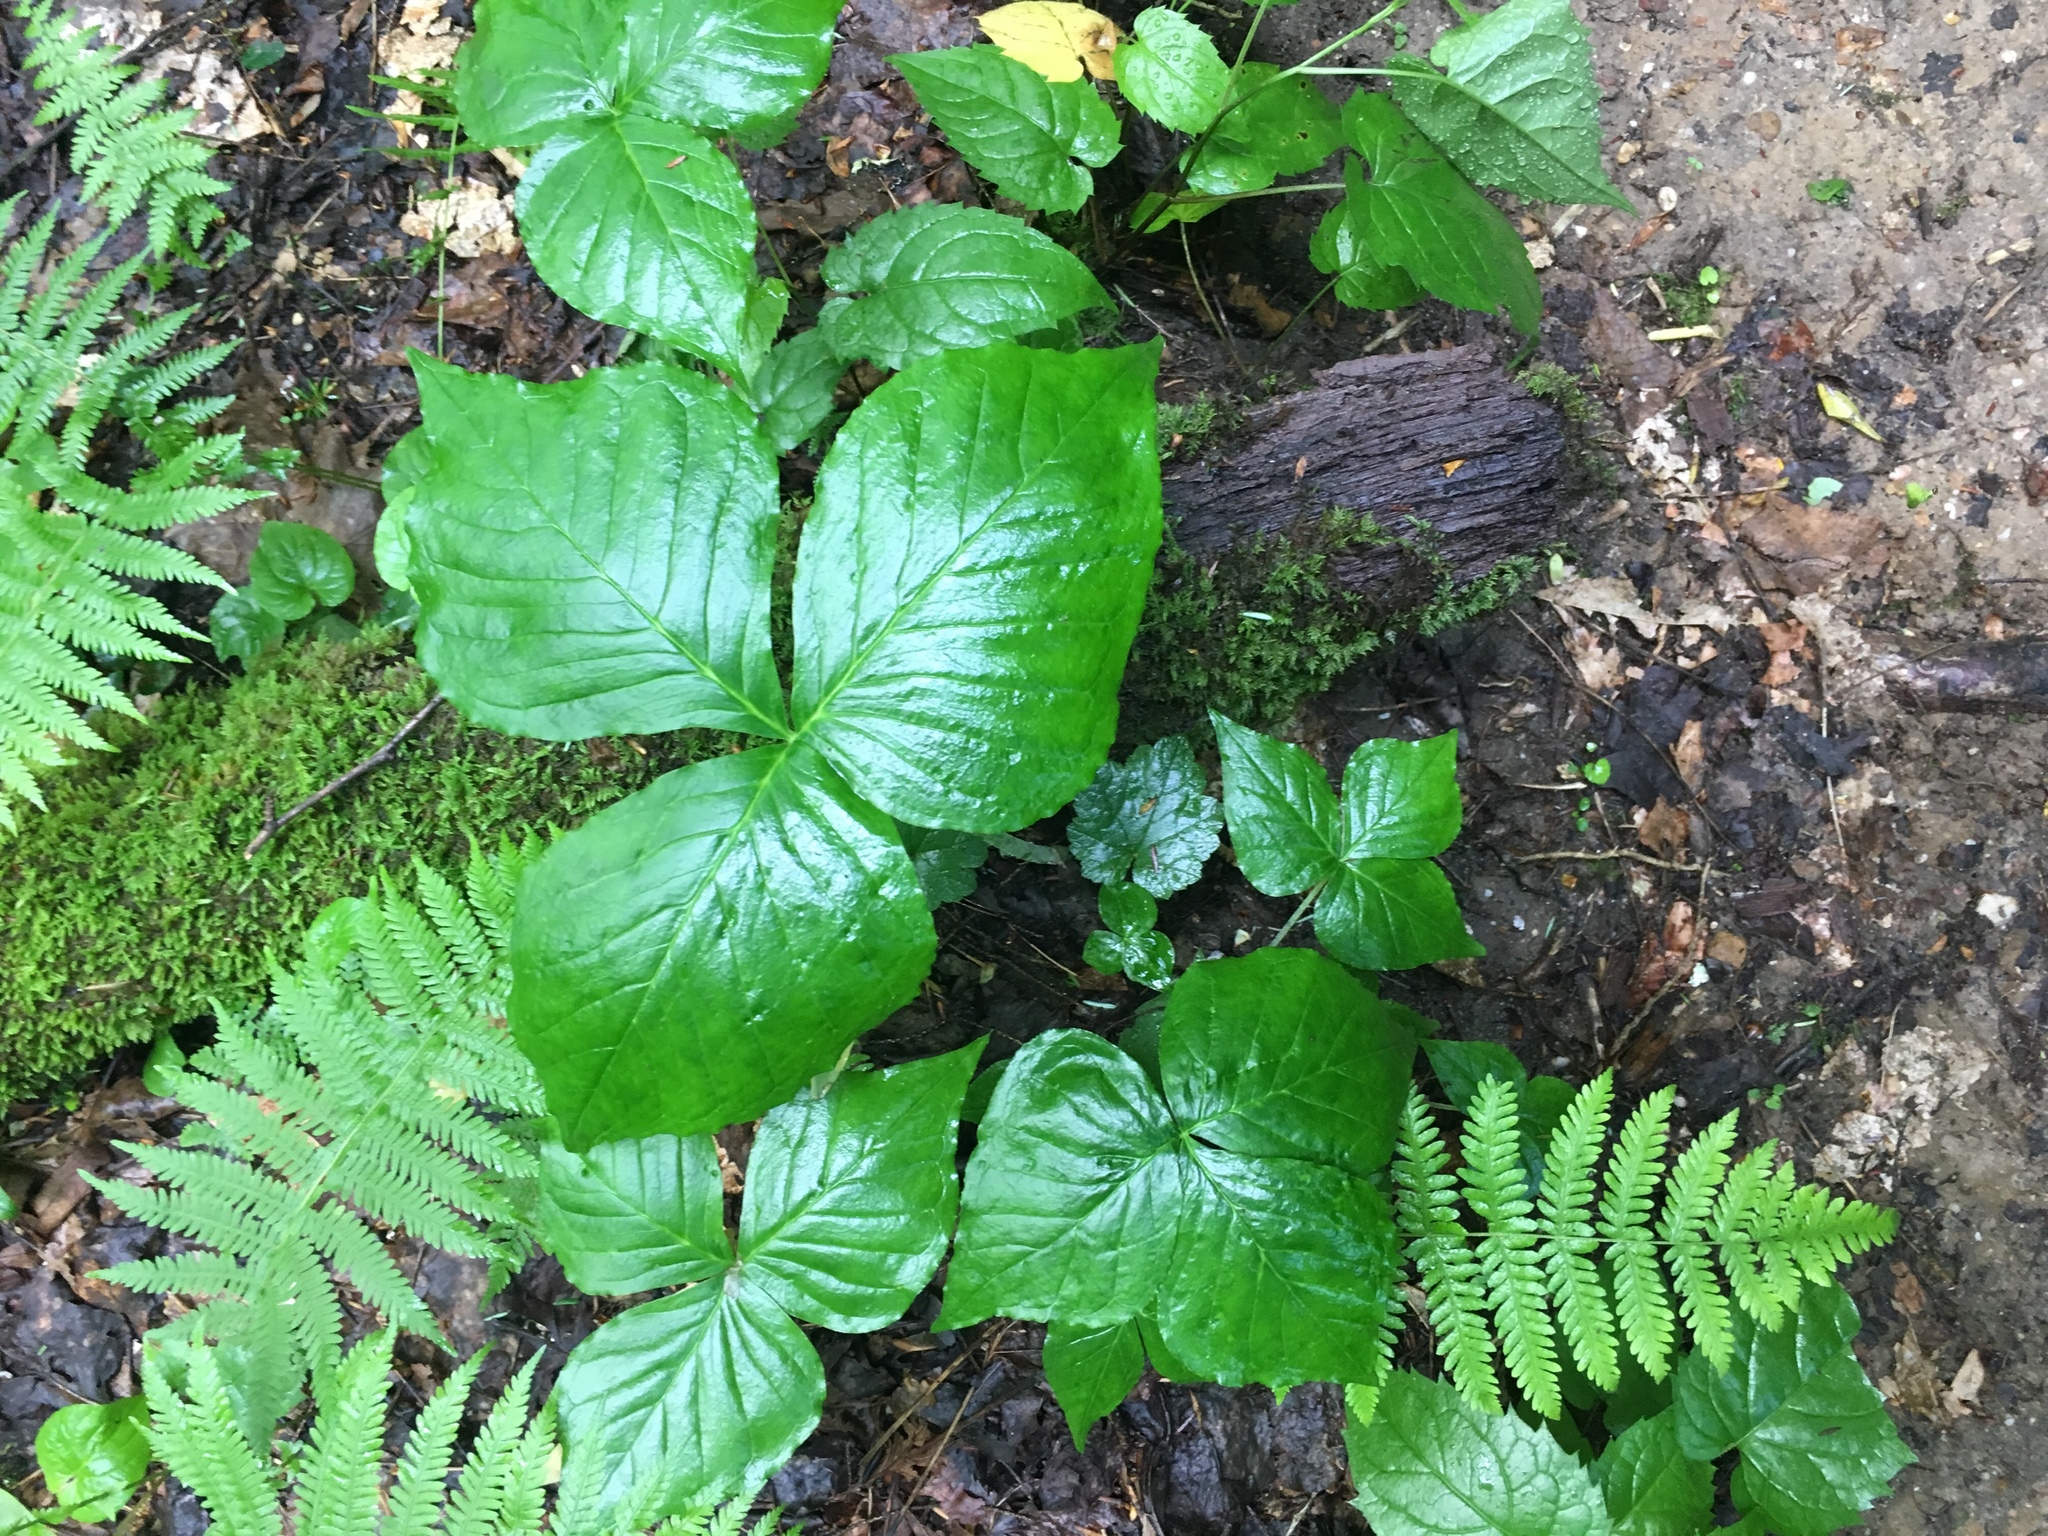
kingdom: Plantae
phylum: Tracheophyta
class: Liliopsida
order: Alismatales
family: Araceae
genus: Arisaema
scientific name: Arisaema triphyllum
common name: Jack-in-the-pulpit
